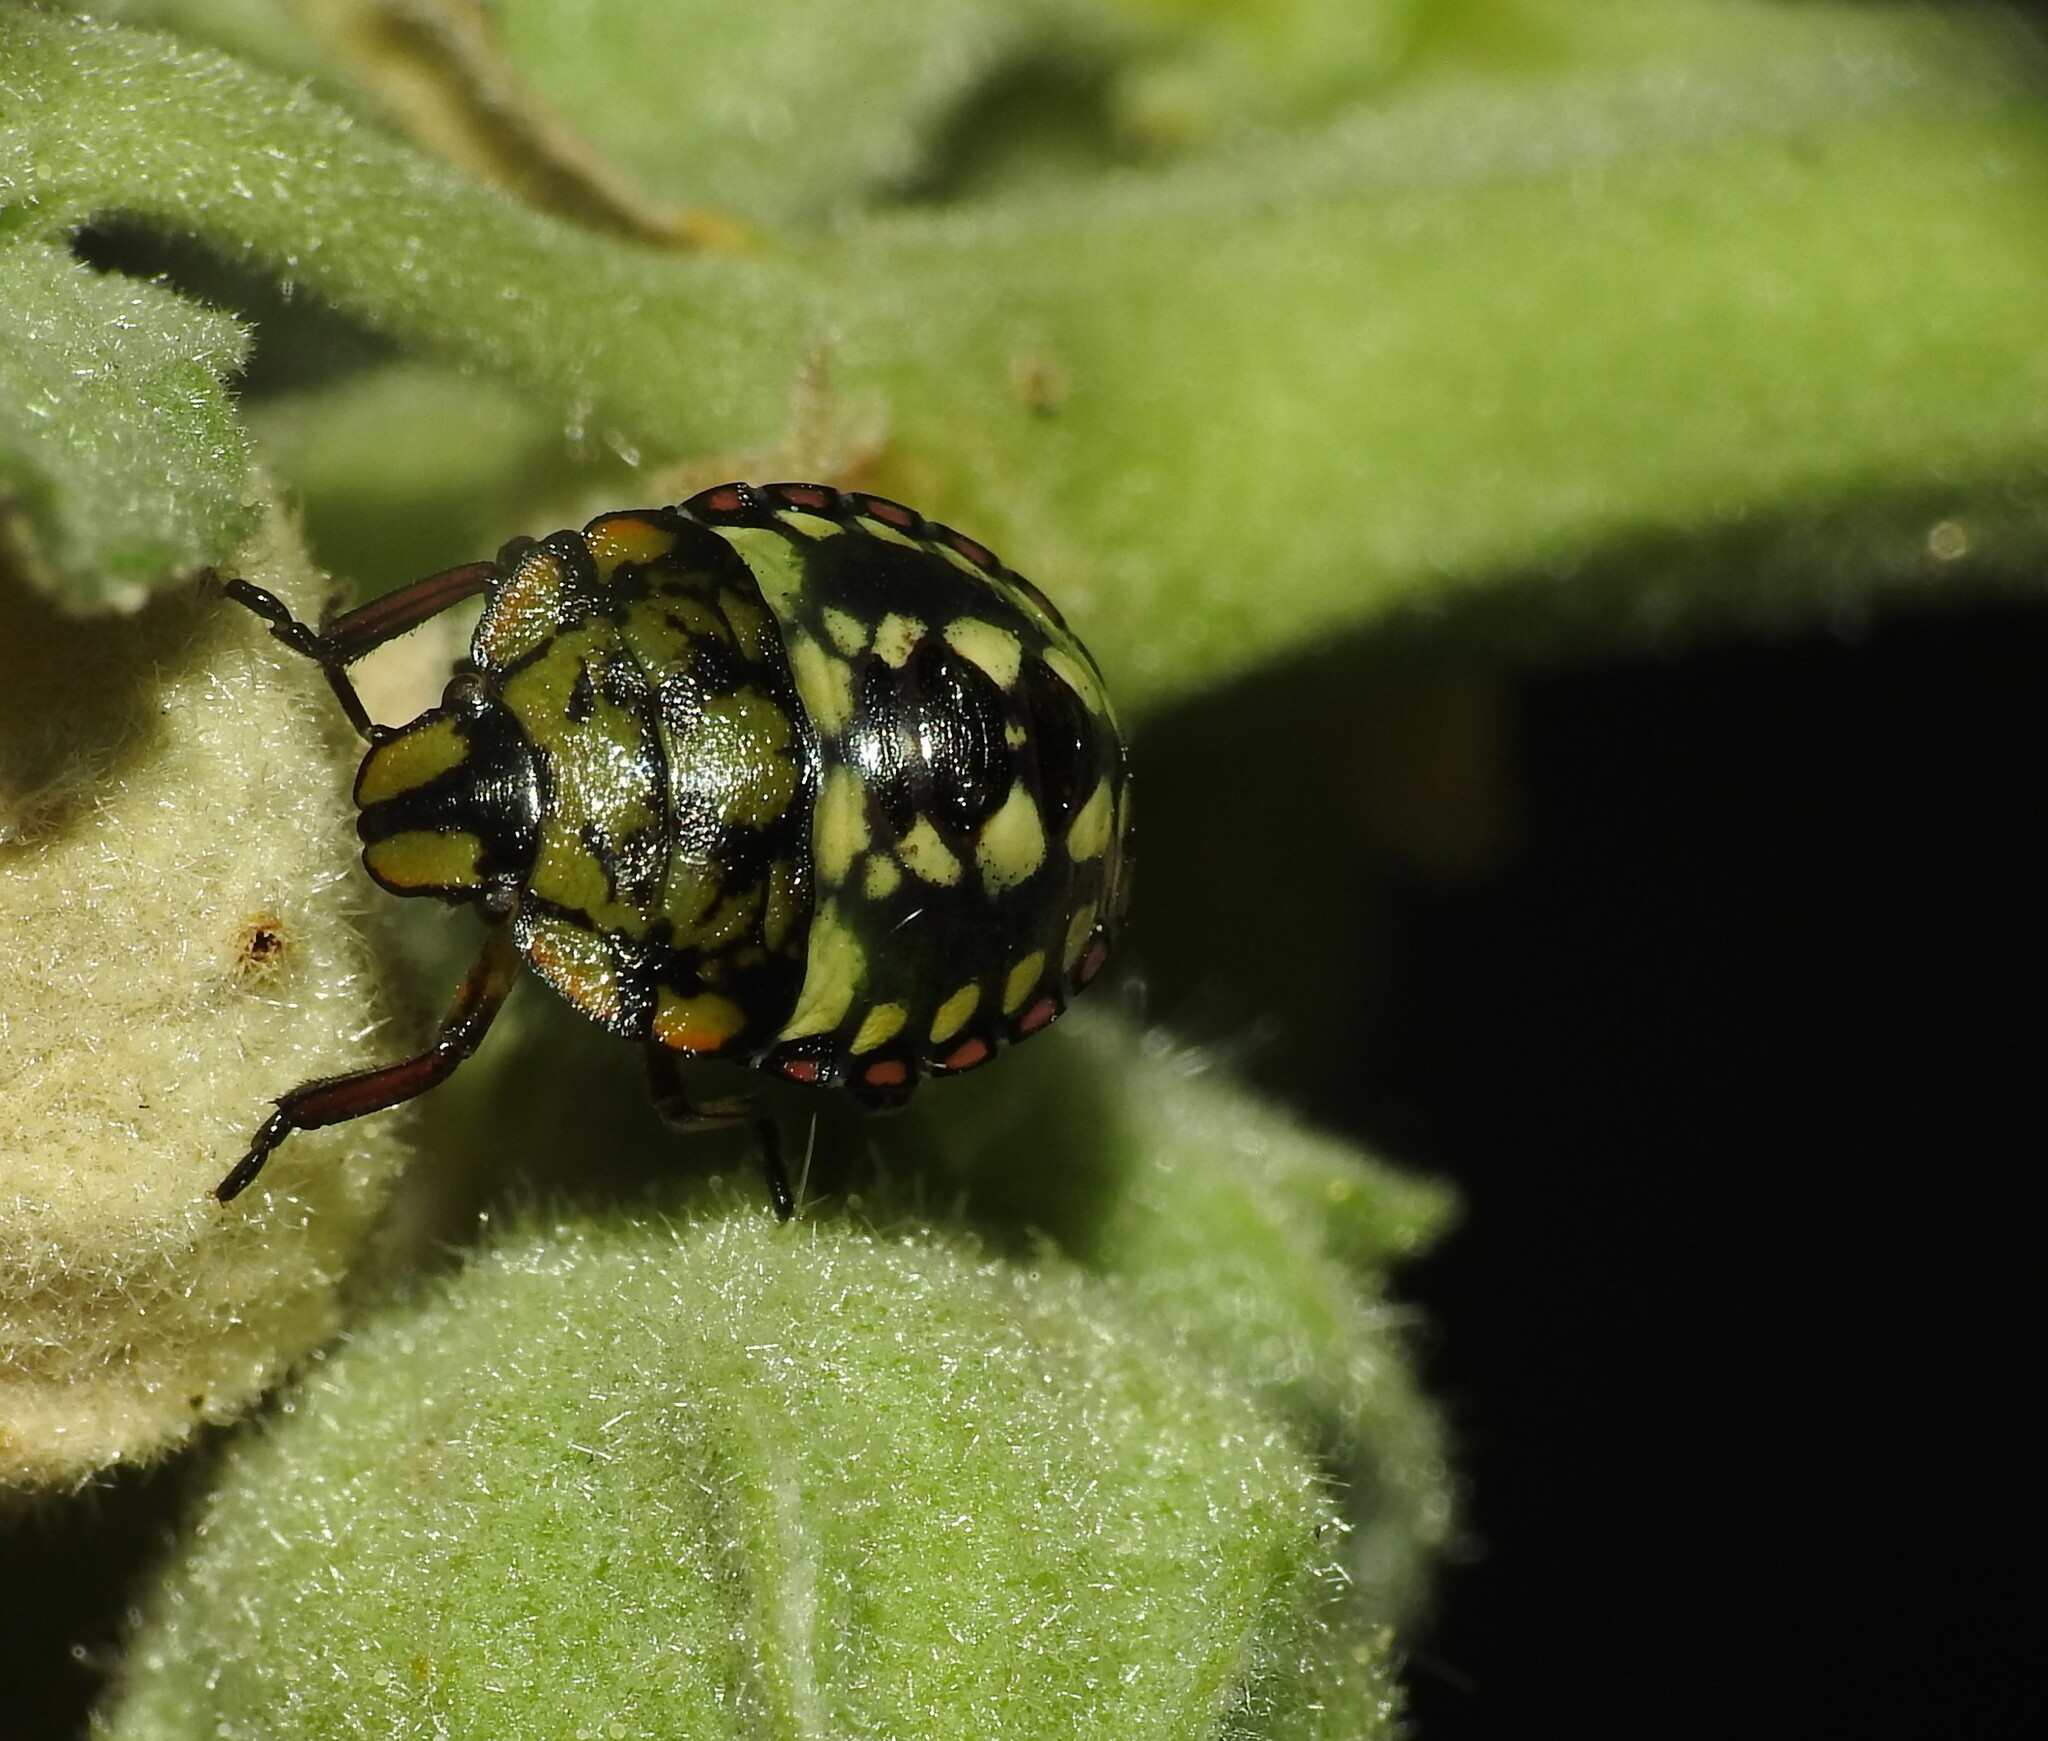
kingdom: Animalia
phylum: Arthropoda
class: Insecta
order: Hemiptera
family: Pentatomidae
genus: Nezara
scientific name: Nezara viridula
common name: Southern green stink bug
